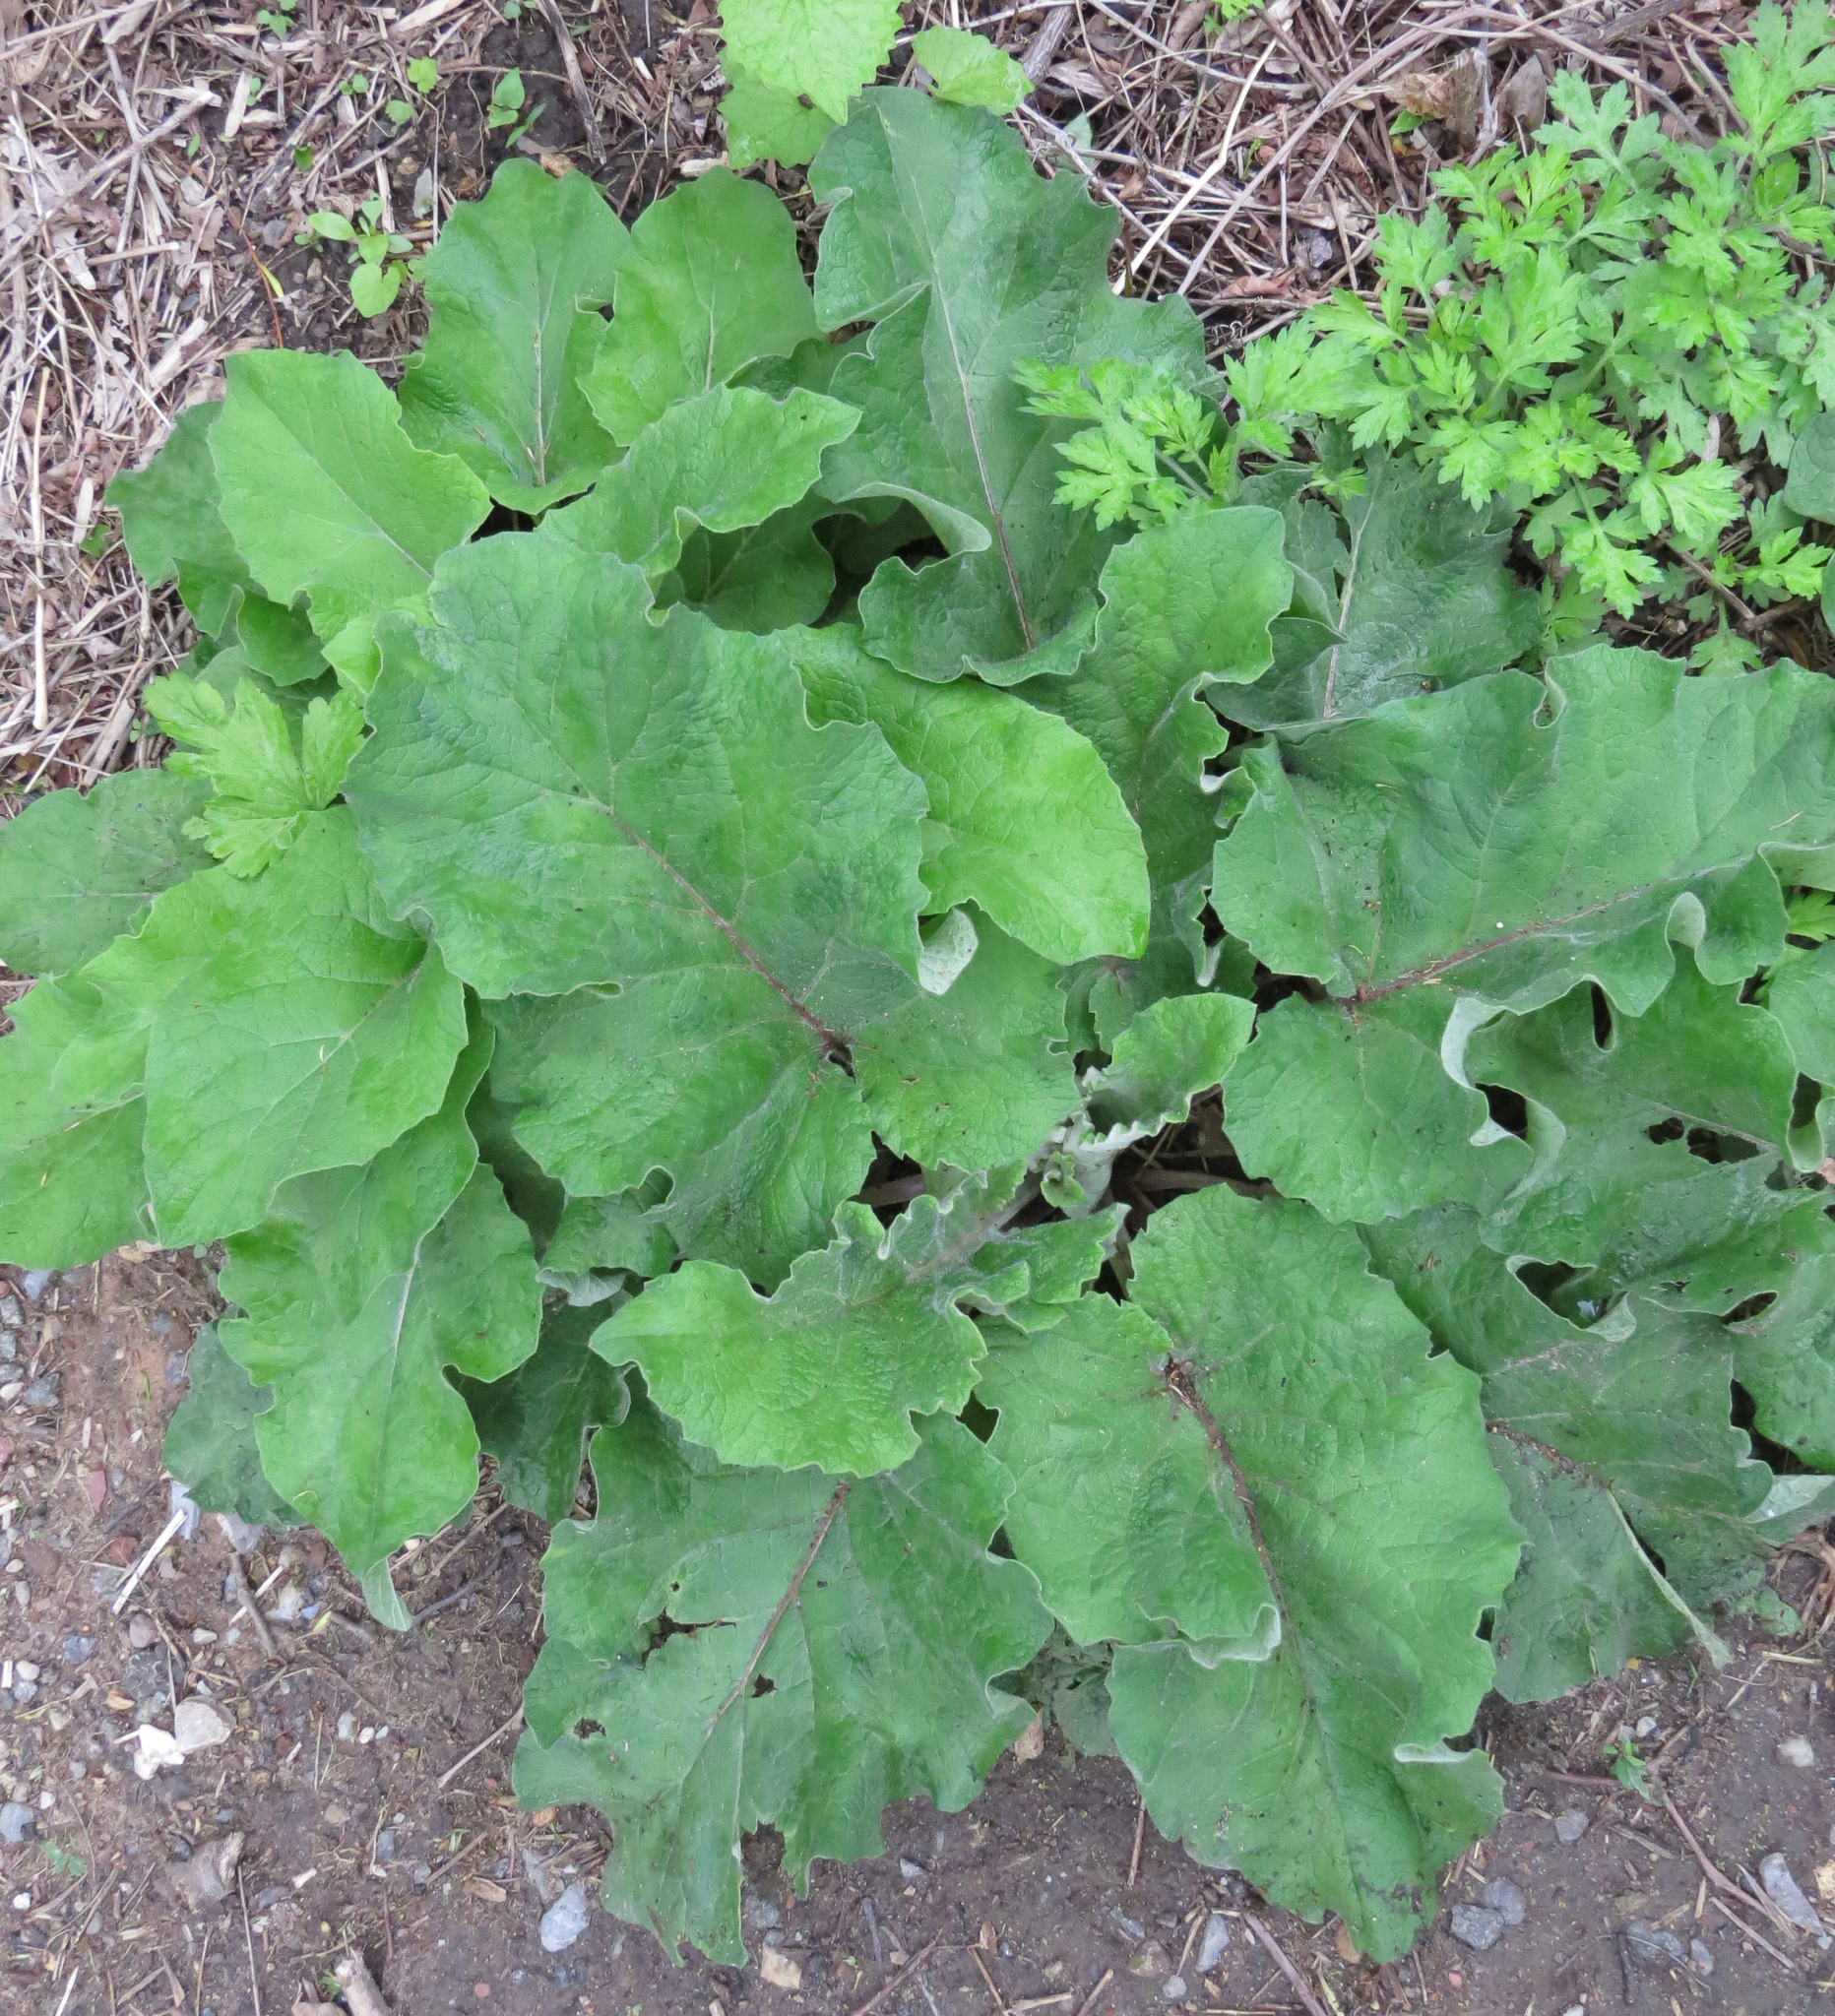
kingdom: Plantae
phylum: Tracheophyta
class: Magnoliopsida
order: Asterales
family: Asteraceae
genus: Arctium
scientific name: Arctium
